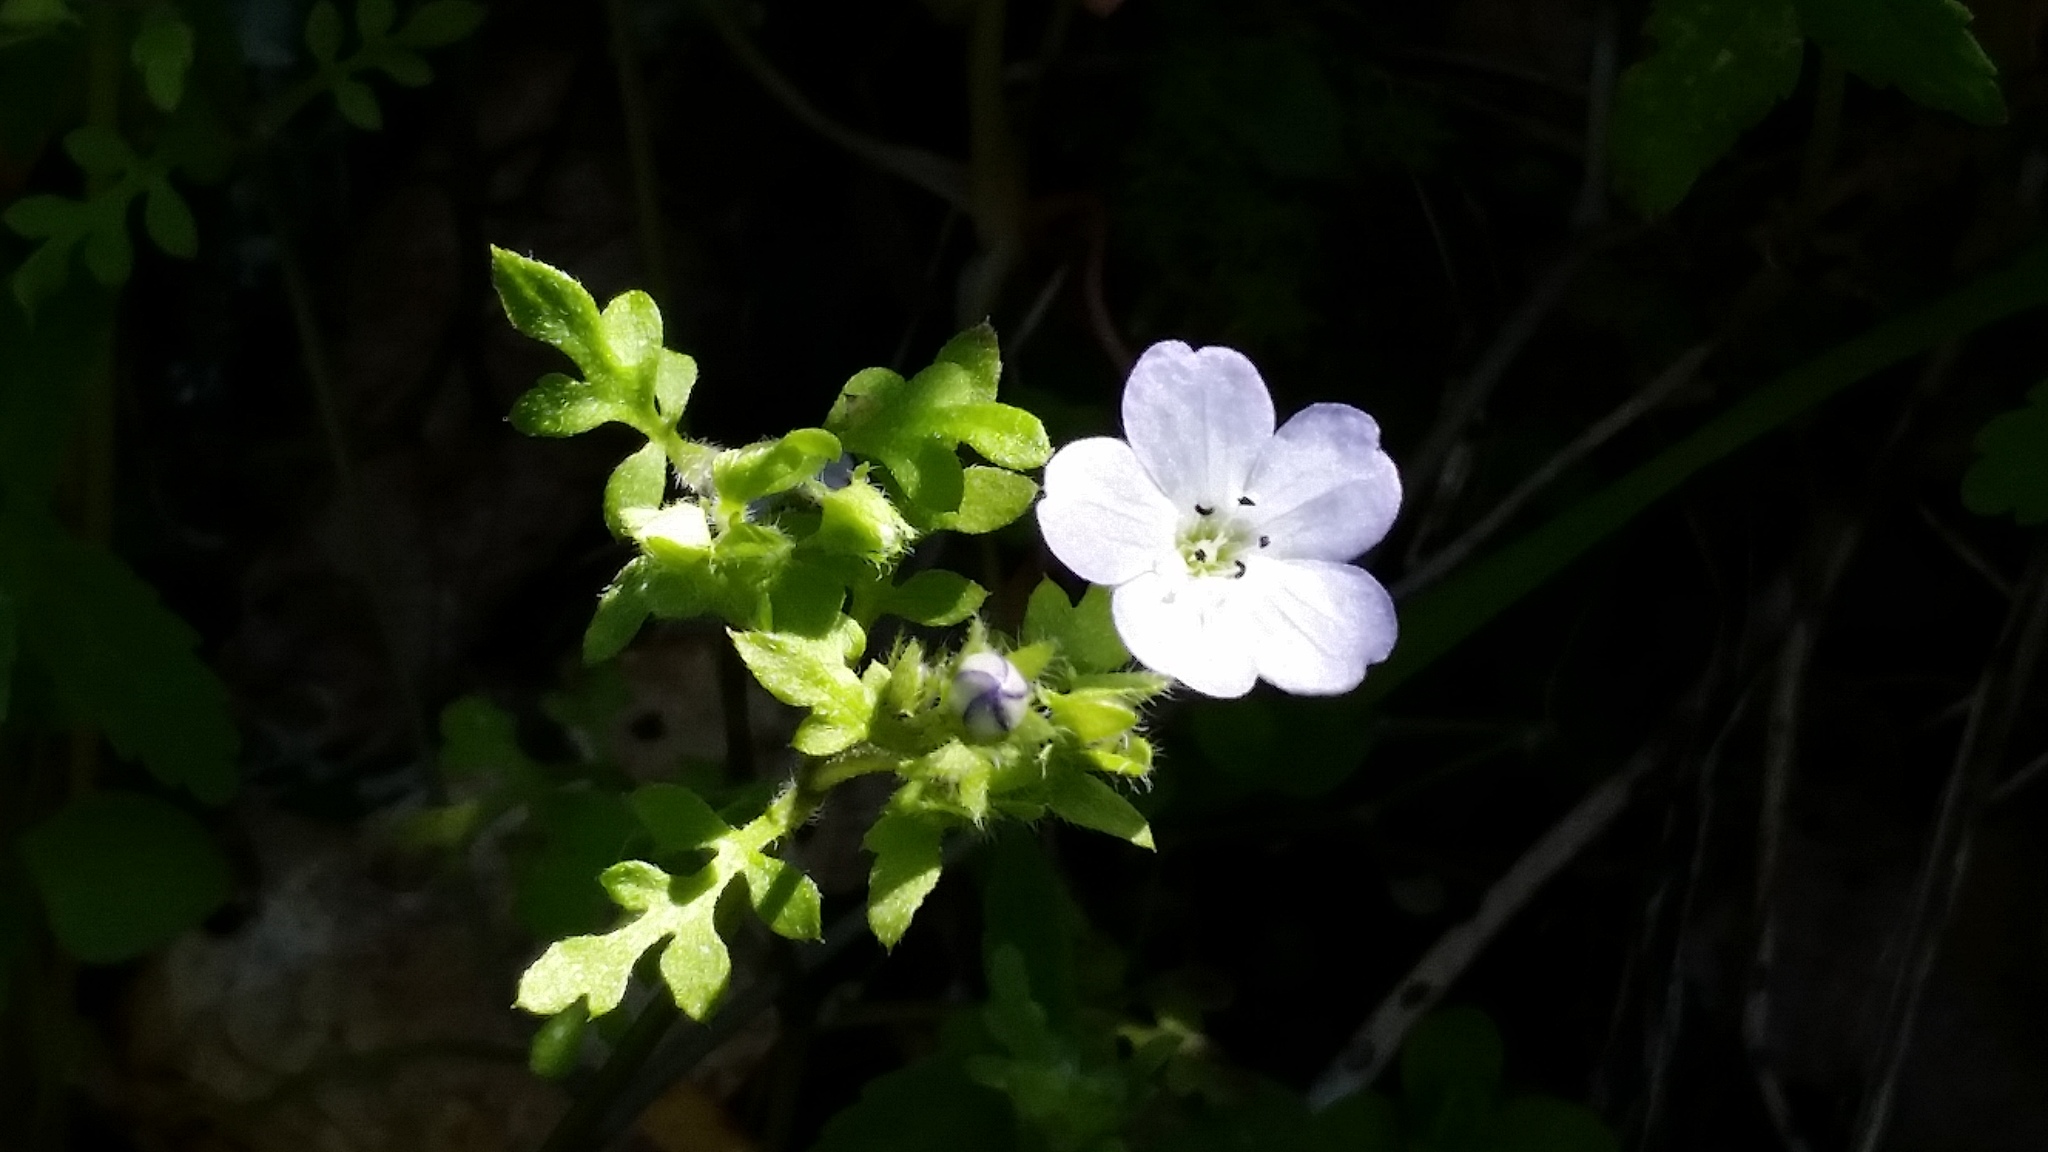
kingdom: Plantae
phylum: Tracheophyta
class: Magnoliopsida
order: Boraginales
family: Hydrophyllaceae
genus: Nemophila
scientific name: Nemophila heterophylla
